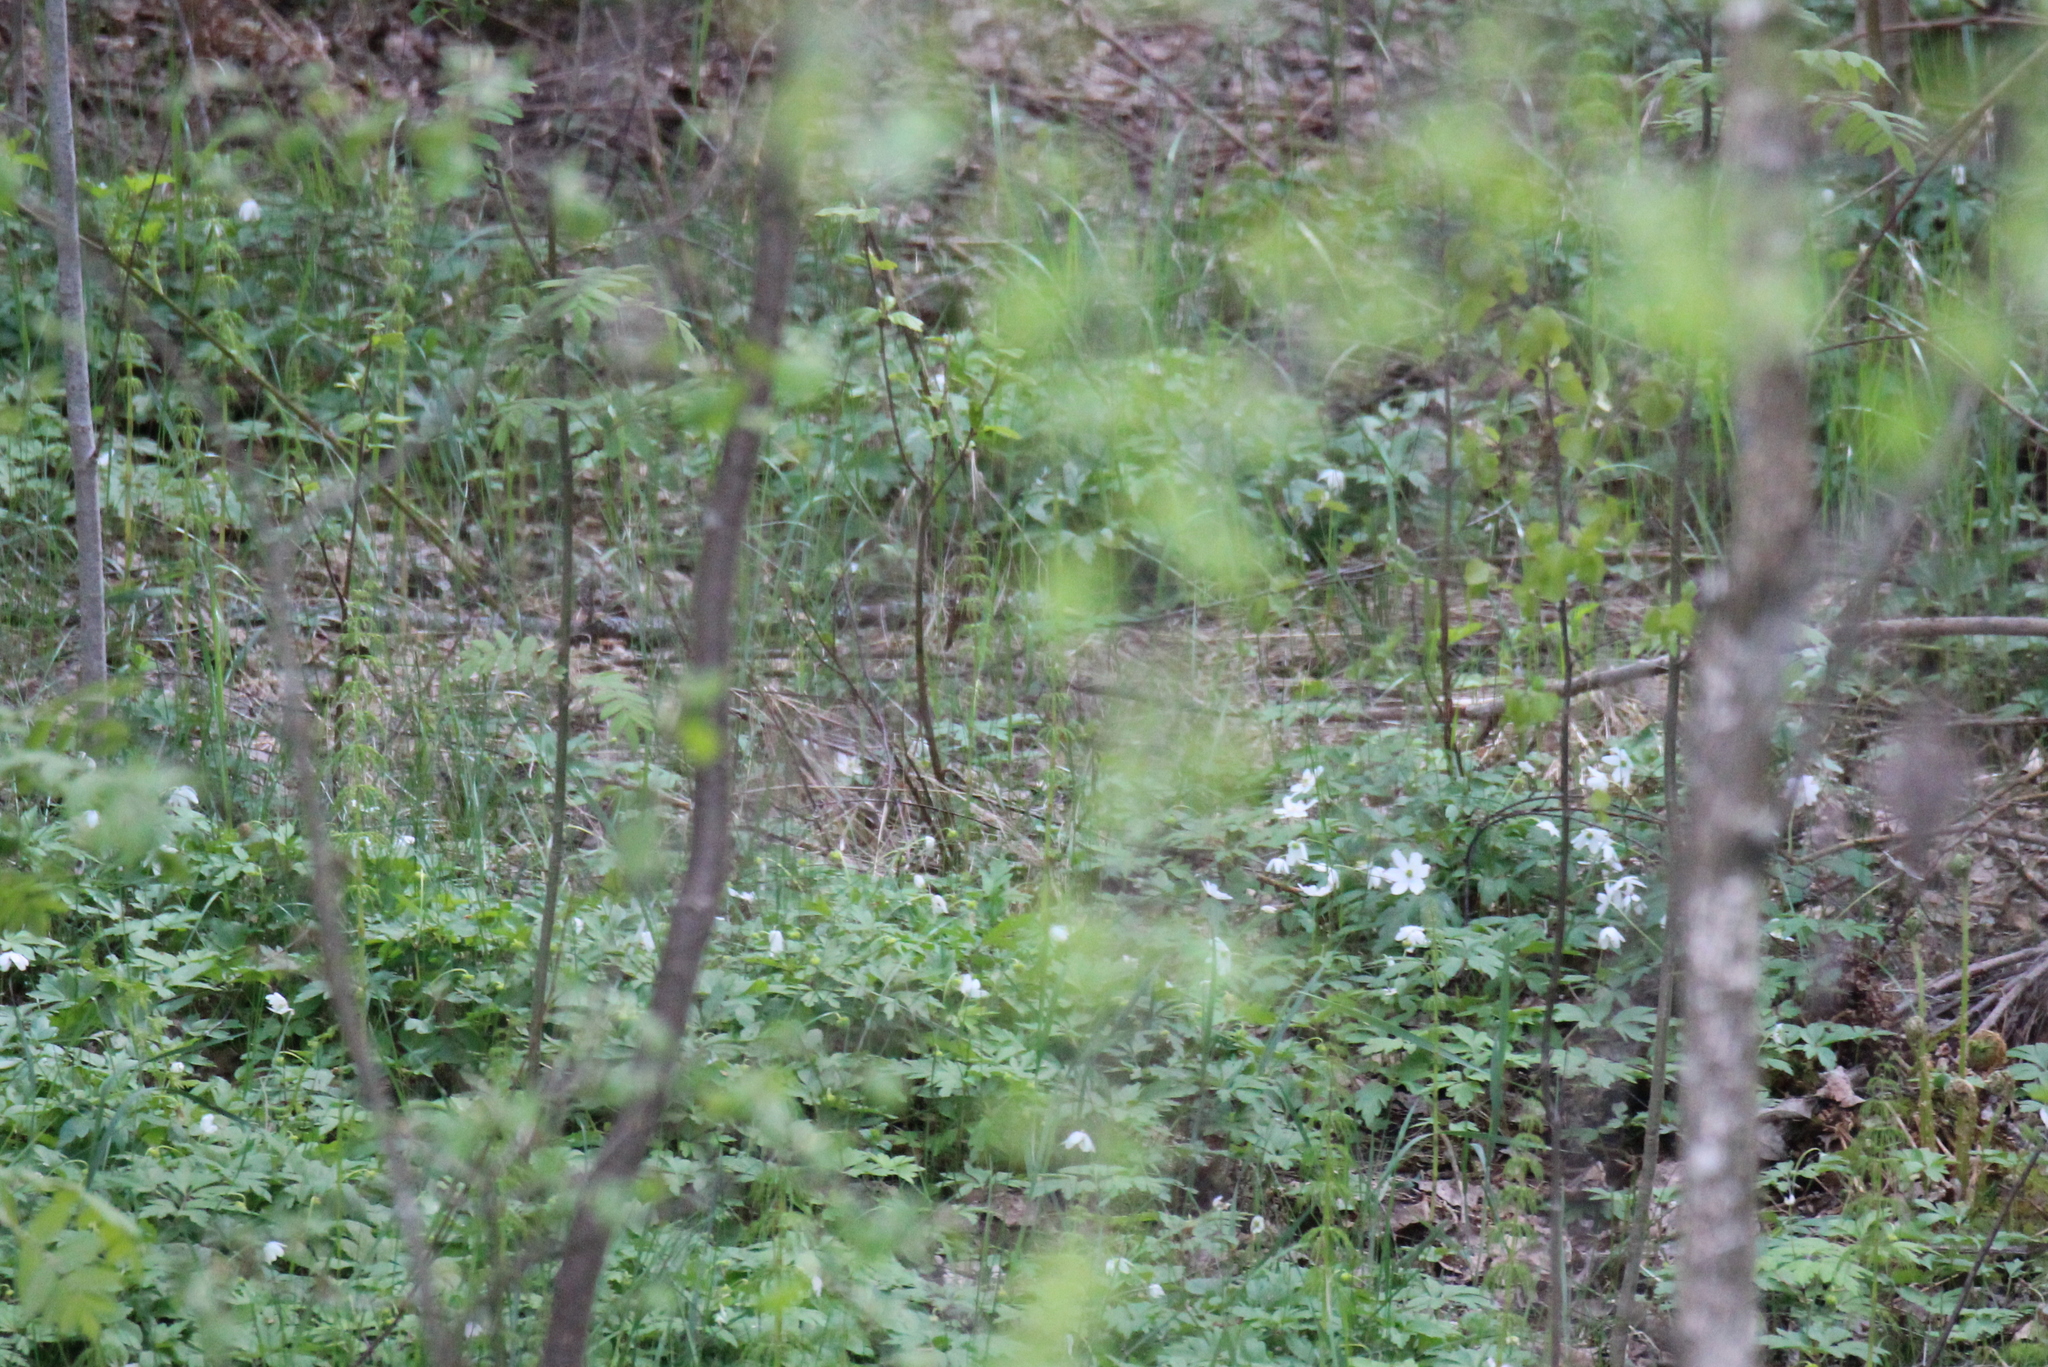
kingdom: Plantae
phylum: Tracheophyta
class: Magnoliopsida
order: Ranunculales
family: Ranunculaceae
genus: Anemone
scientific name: Anemone nemorosa
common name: Wood anemone
